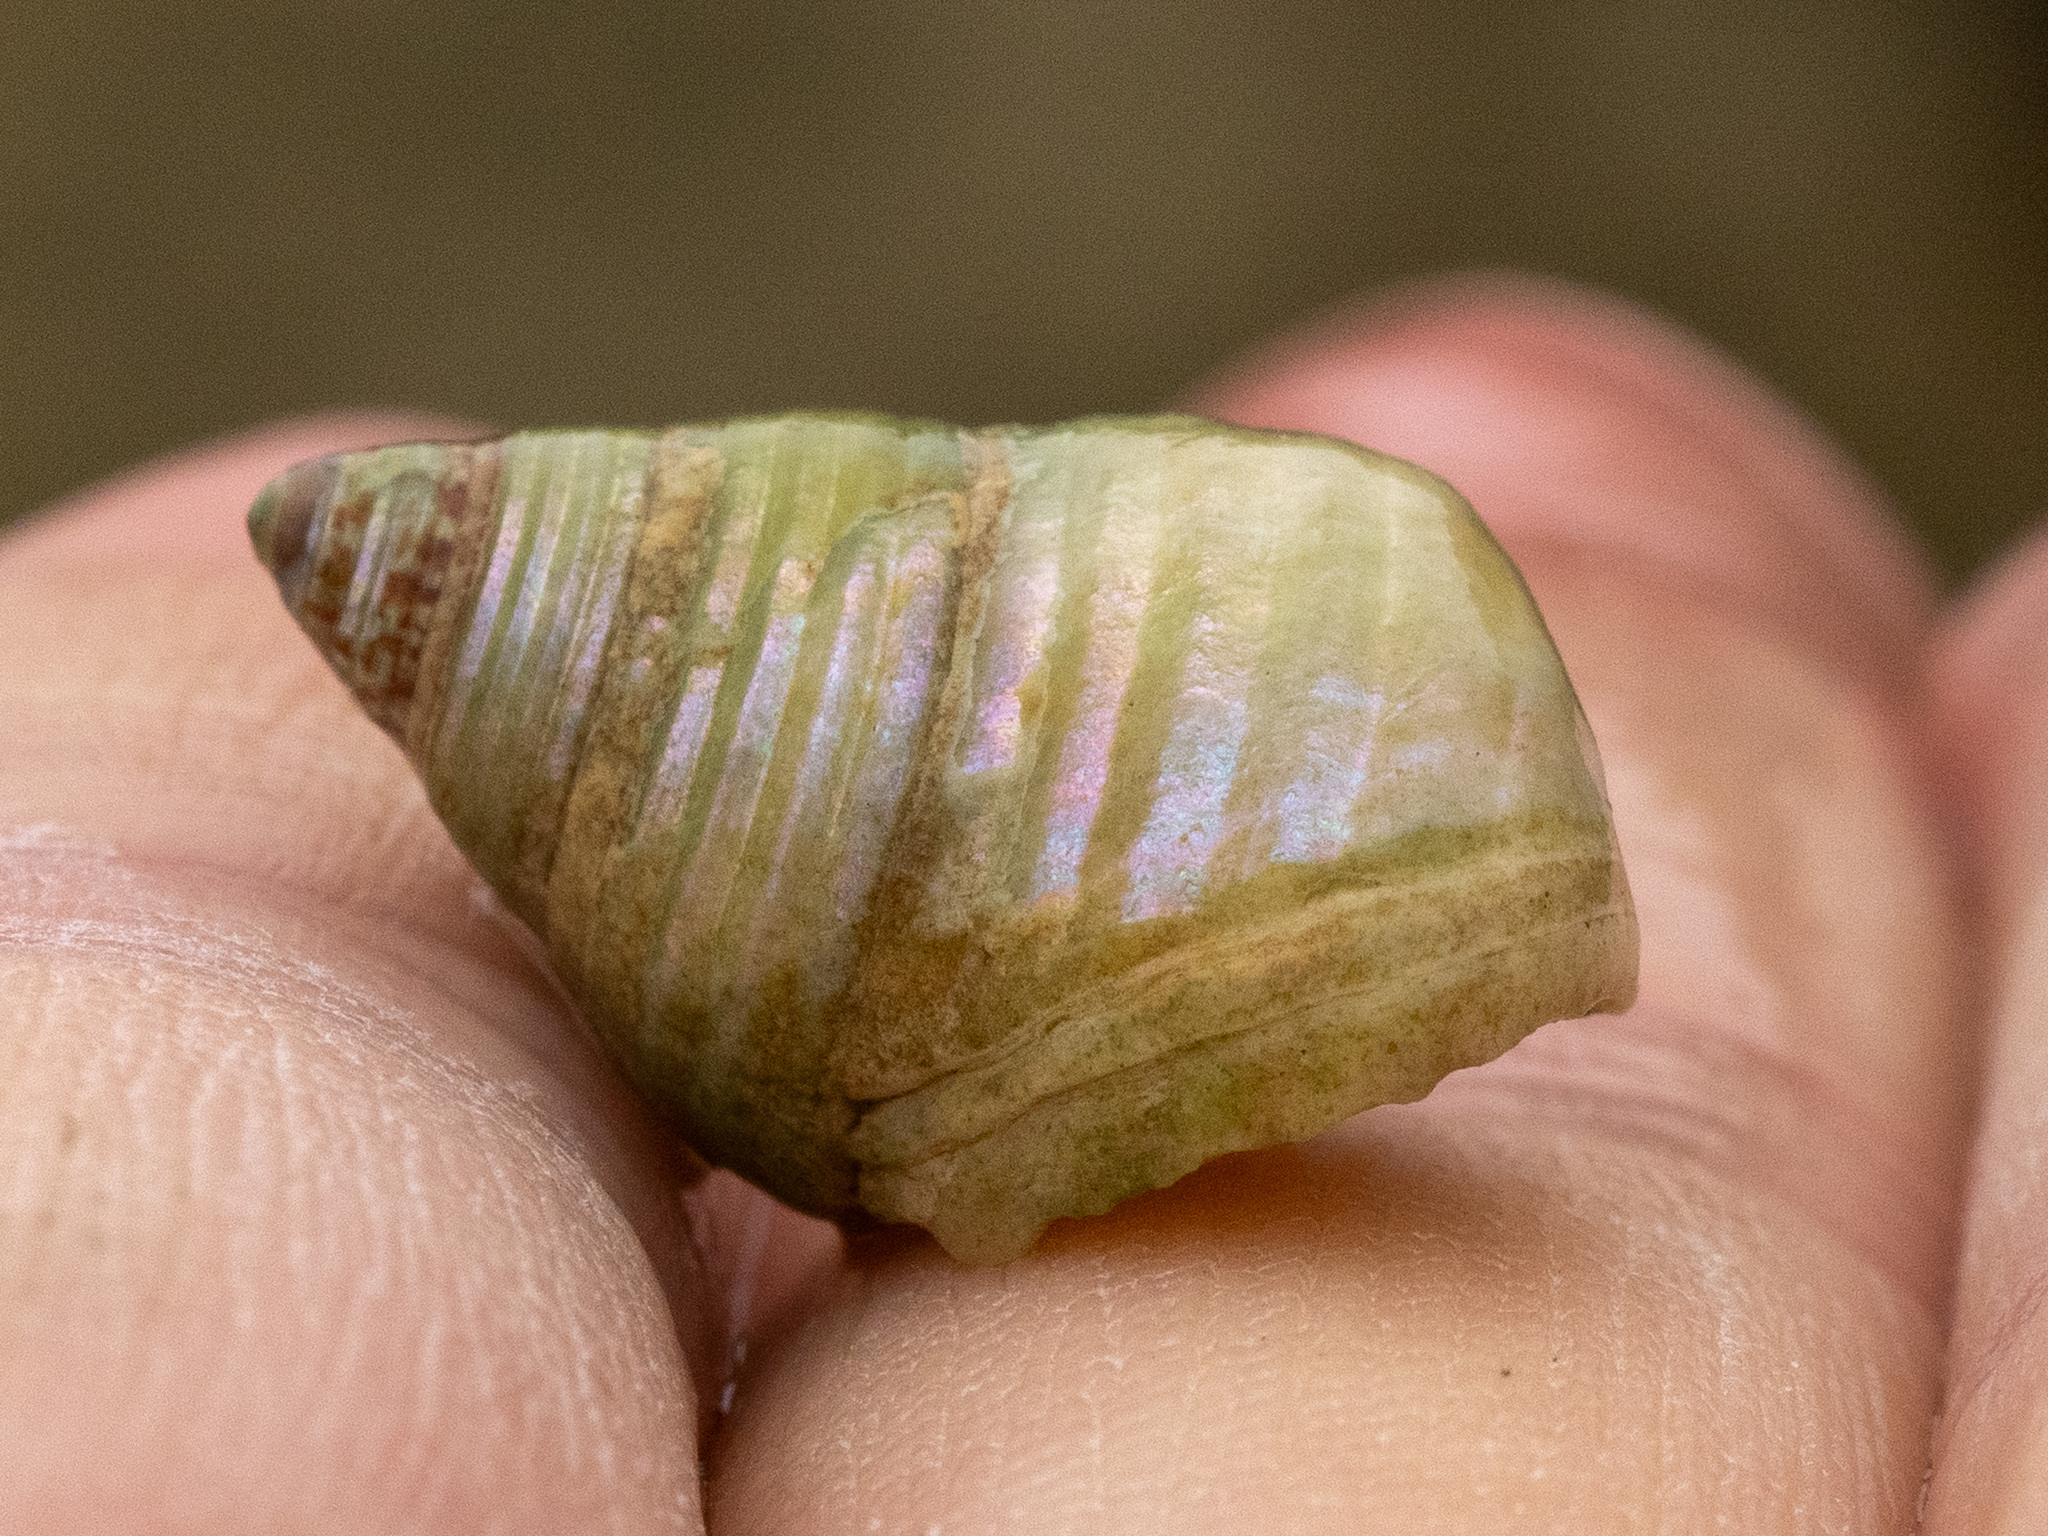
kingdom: Animalia
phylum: Mollusca
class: Gastropoda
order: Trochida
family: Trochidae
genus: Micrelenchus
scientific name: Micrelenchus purpureus
